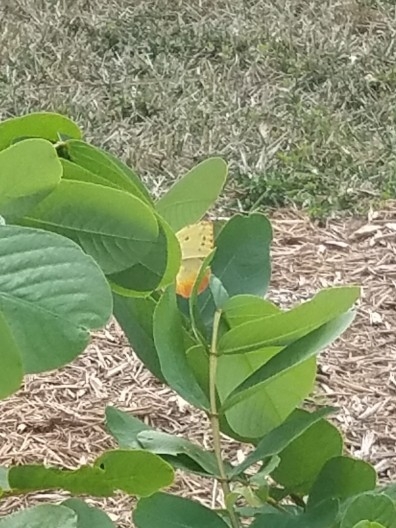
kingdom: Animalia
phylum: Arthropoda
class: Insecta
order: Lepidoptera
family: Pieridae
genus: Phoebis
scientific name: Phoebis philea
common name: Orange-barred giant sulphur
